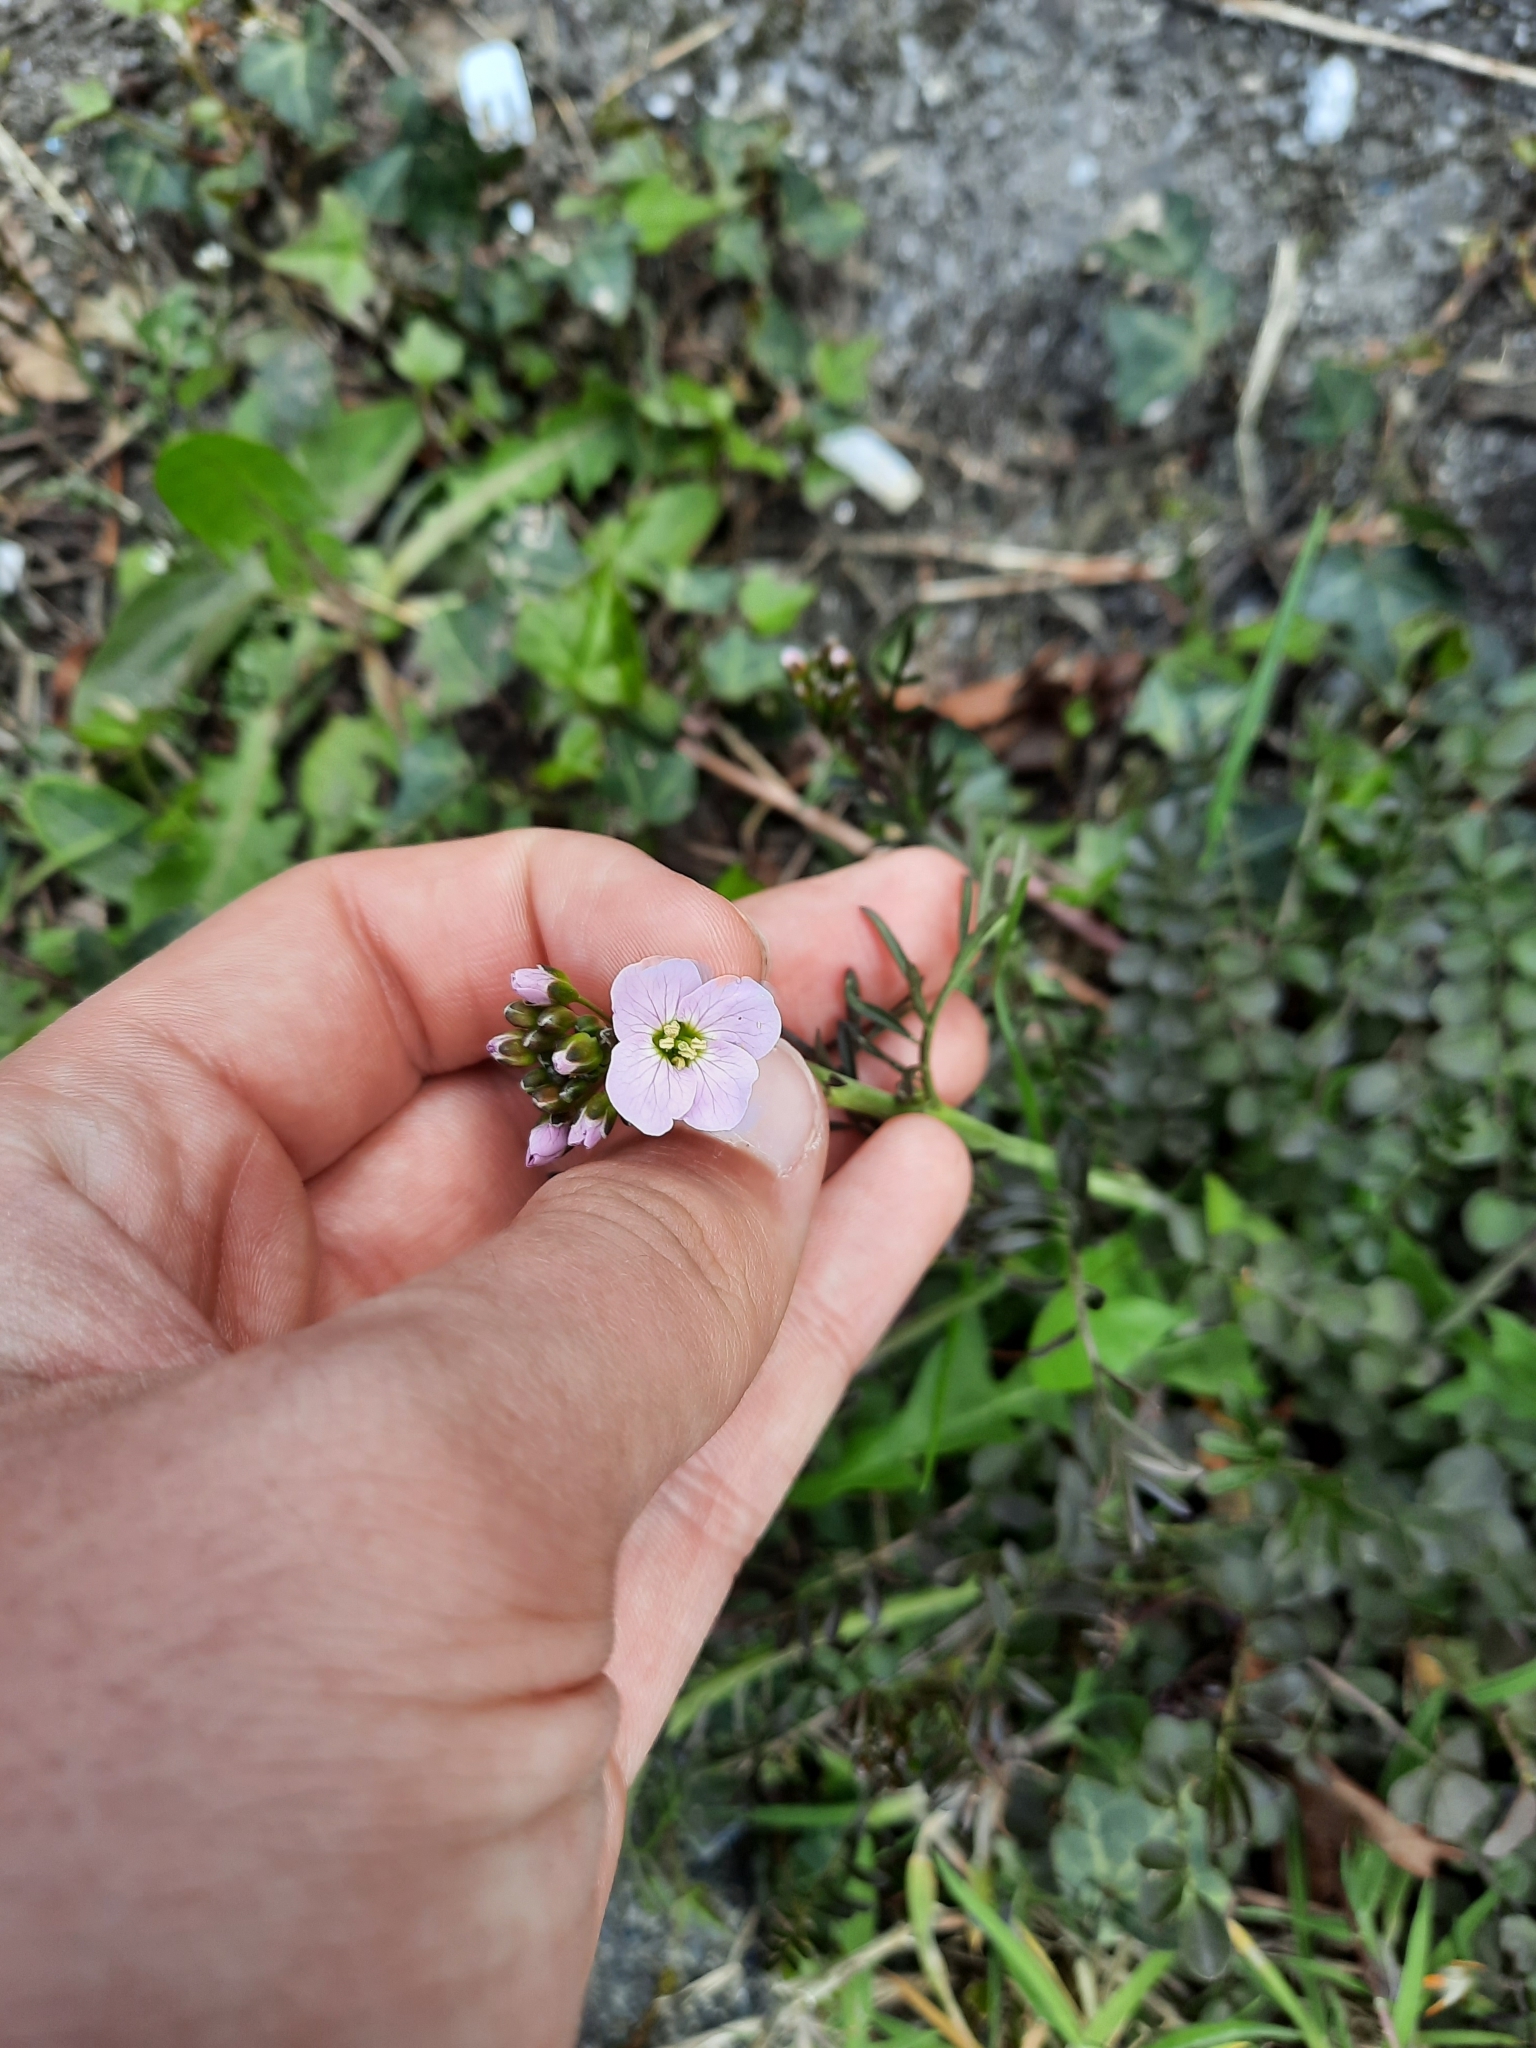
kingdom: Plantae
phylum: Tracheophyta
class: Magnoliopsida
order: Brassicales
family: Brassicaceae
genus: Cardamine
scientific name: Cardamine pratensis
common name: Cuckoo flower
